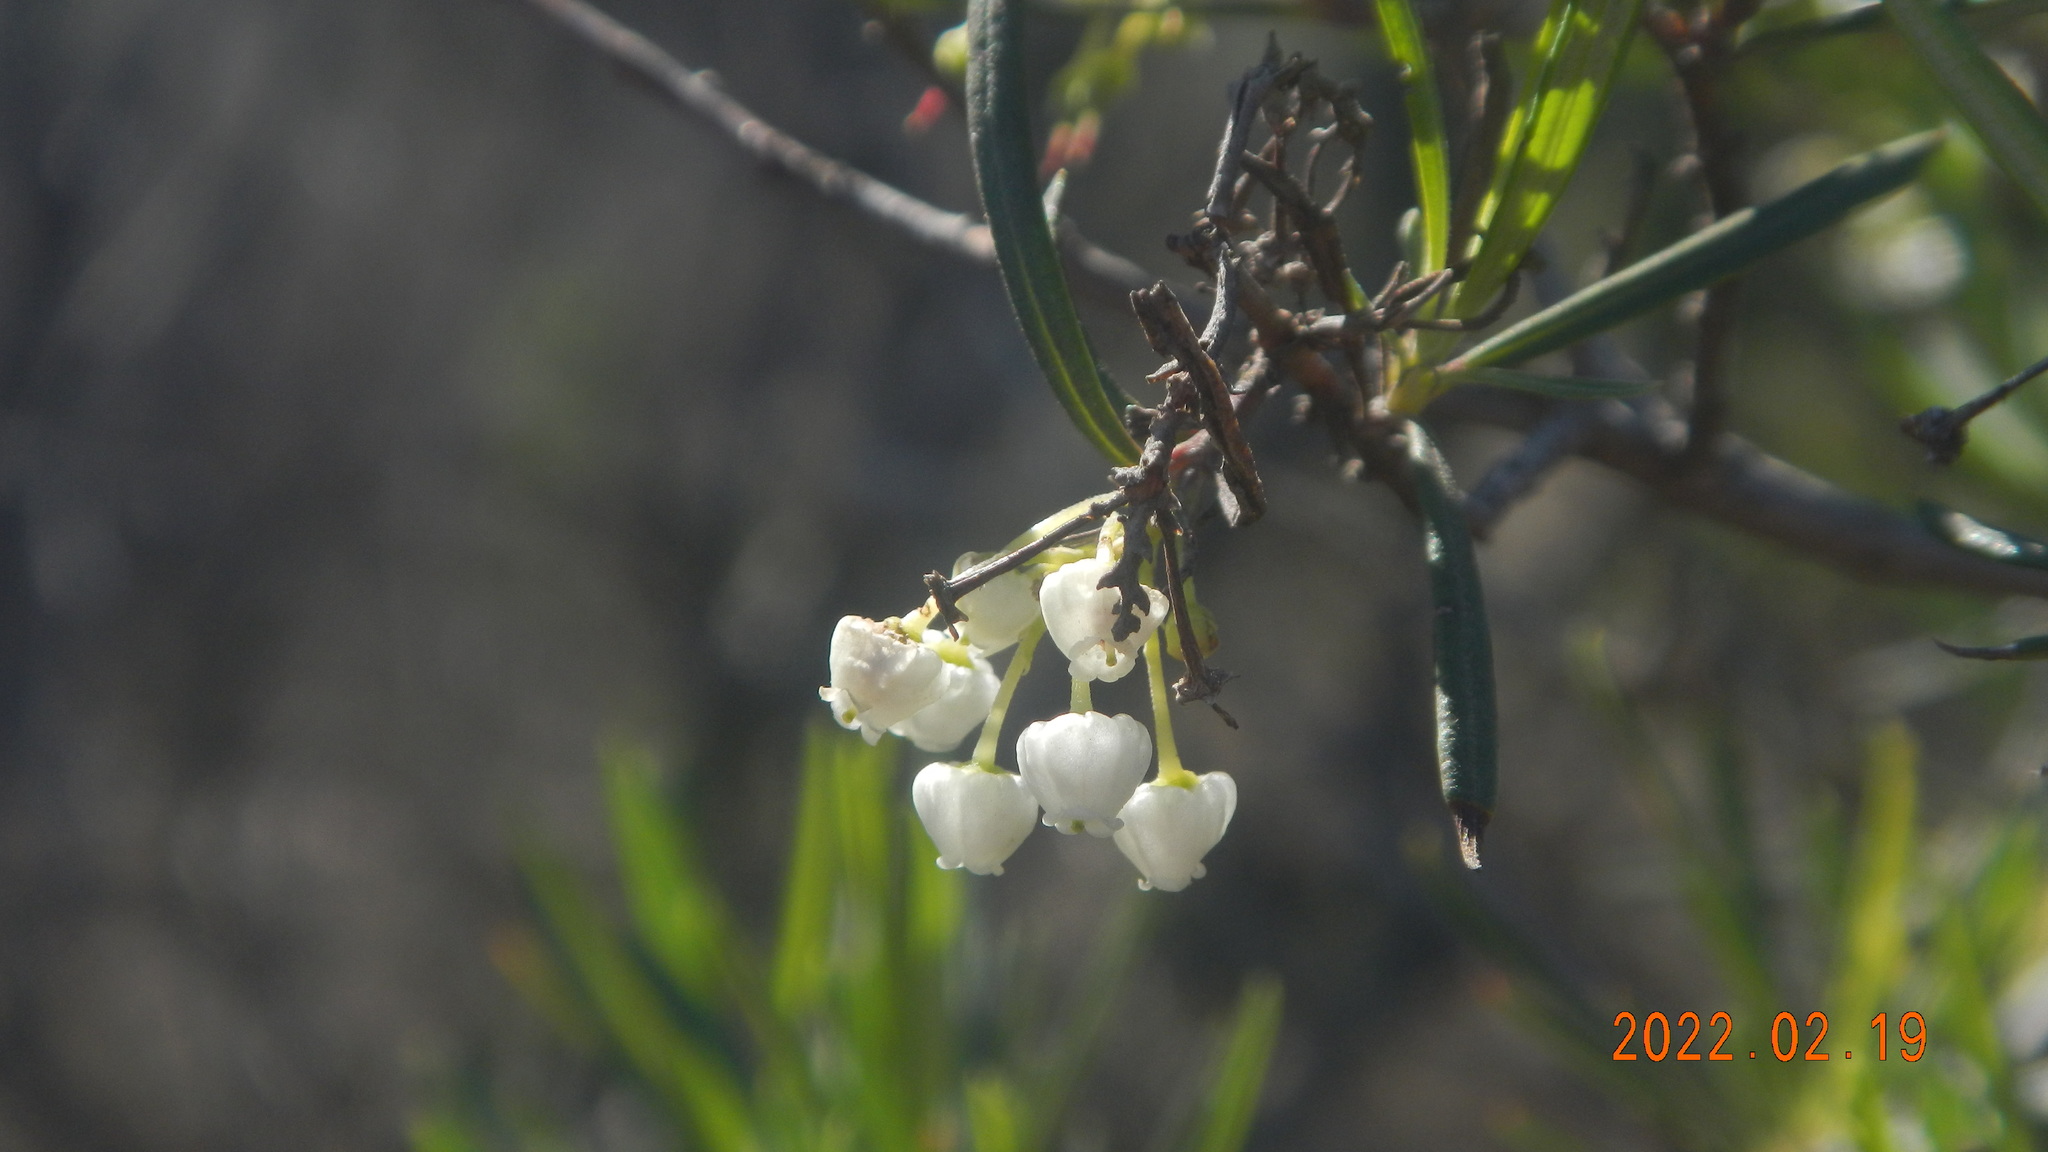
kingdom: Plantae
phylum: Tracheophyta
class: Magnoliopsida
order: Ericales
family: Ericaceae
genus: Ornithostaphylos
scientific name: Ornithostaphylos oppositifolia
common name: Baja california birdbush
